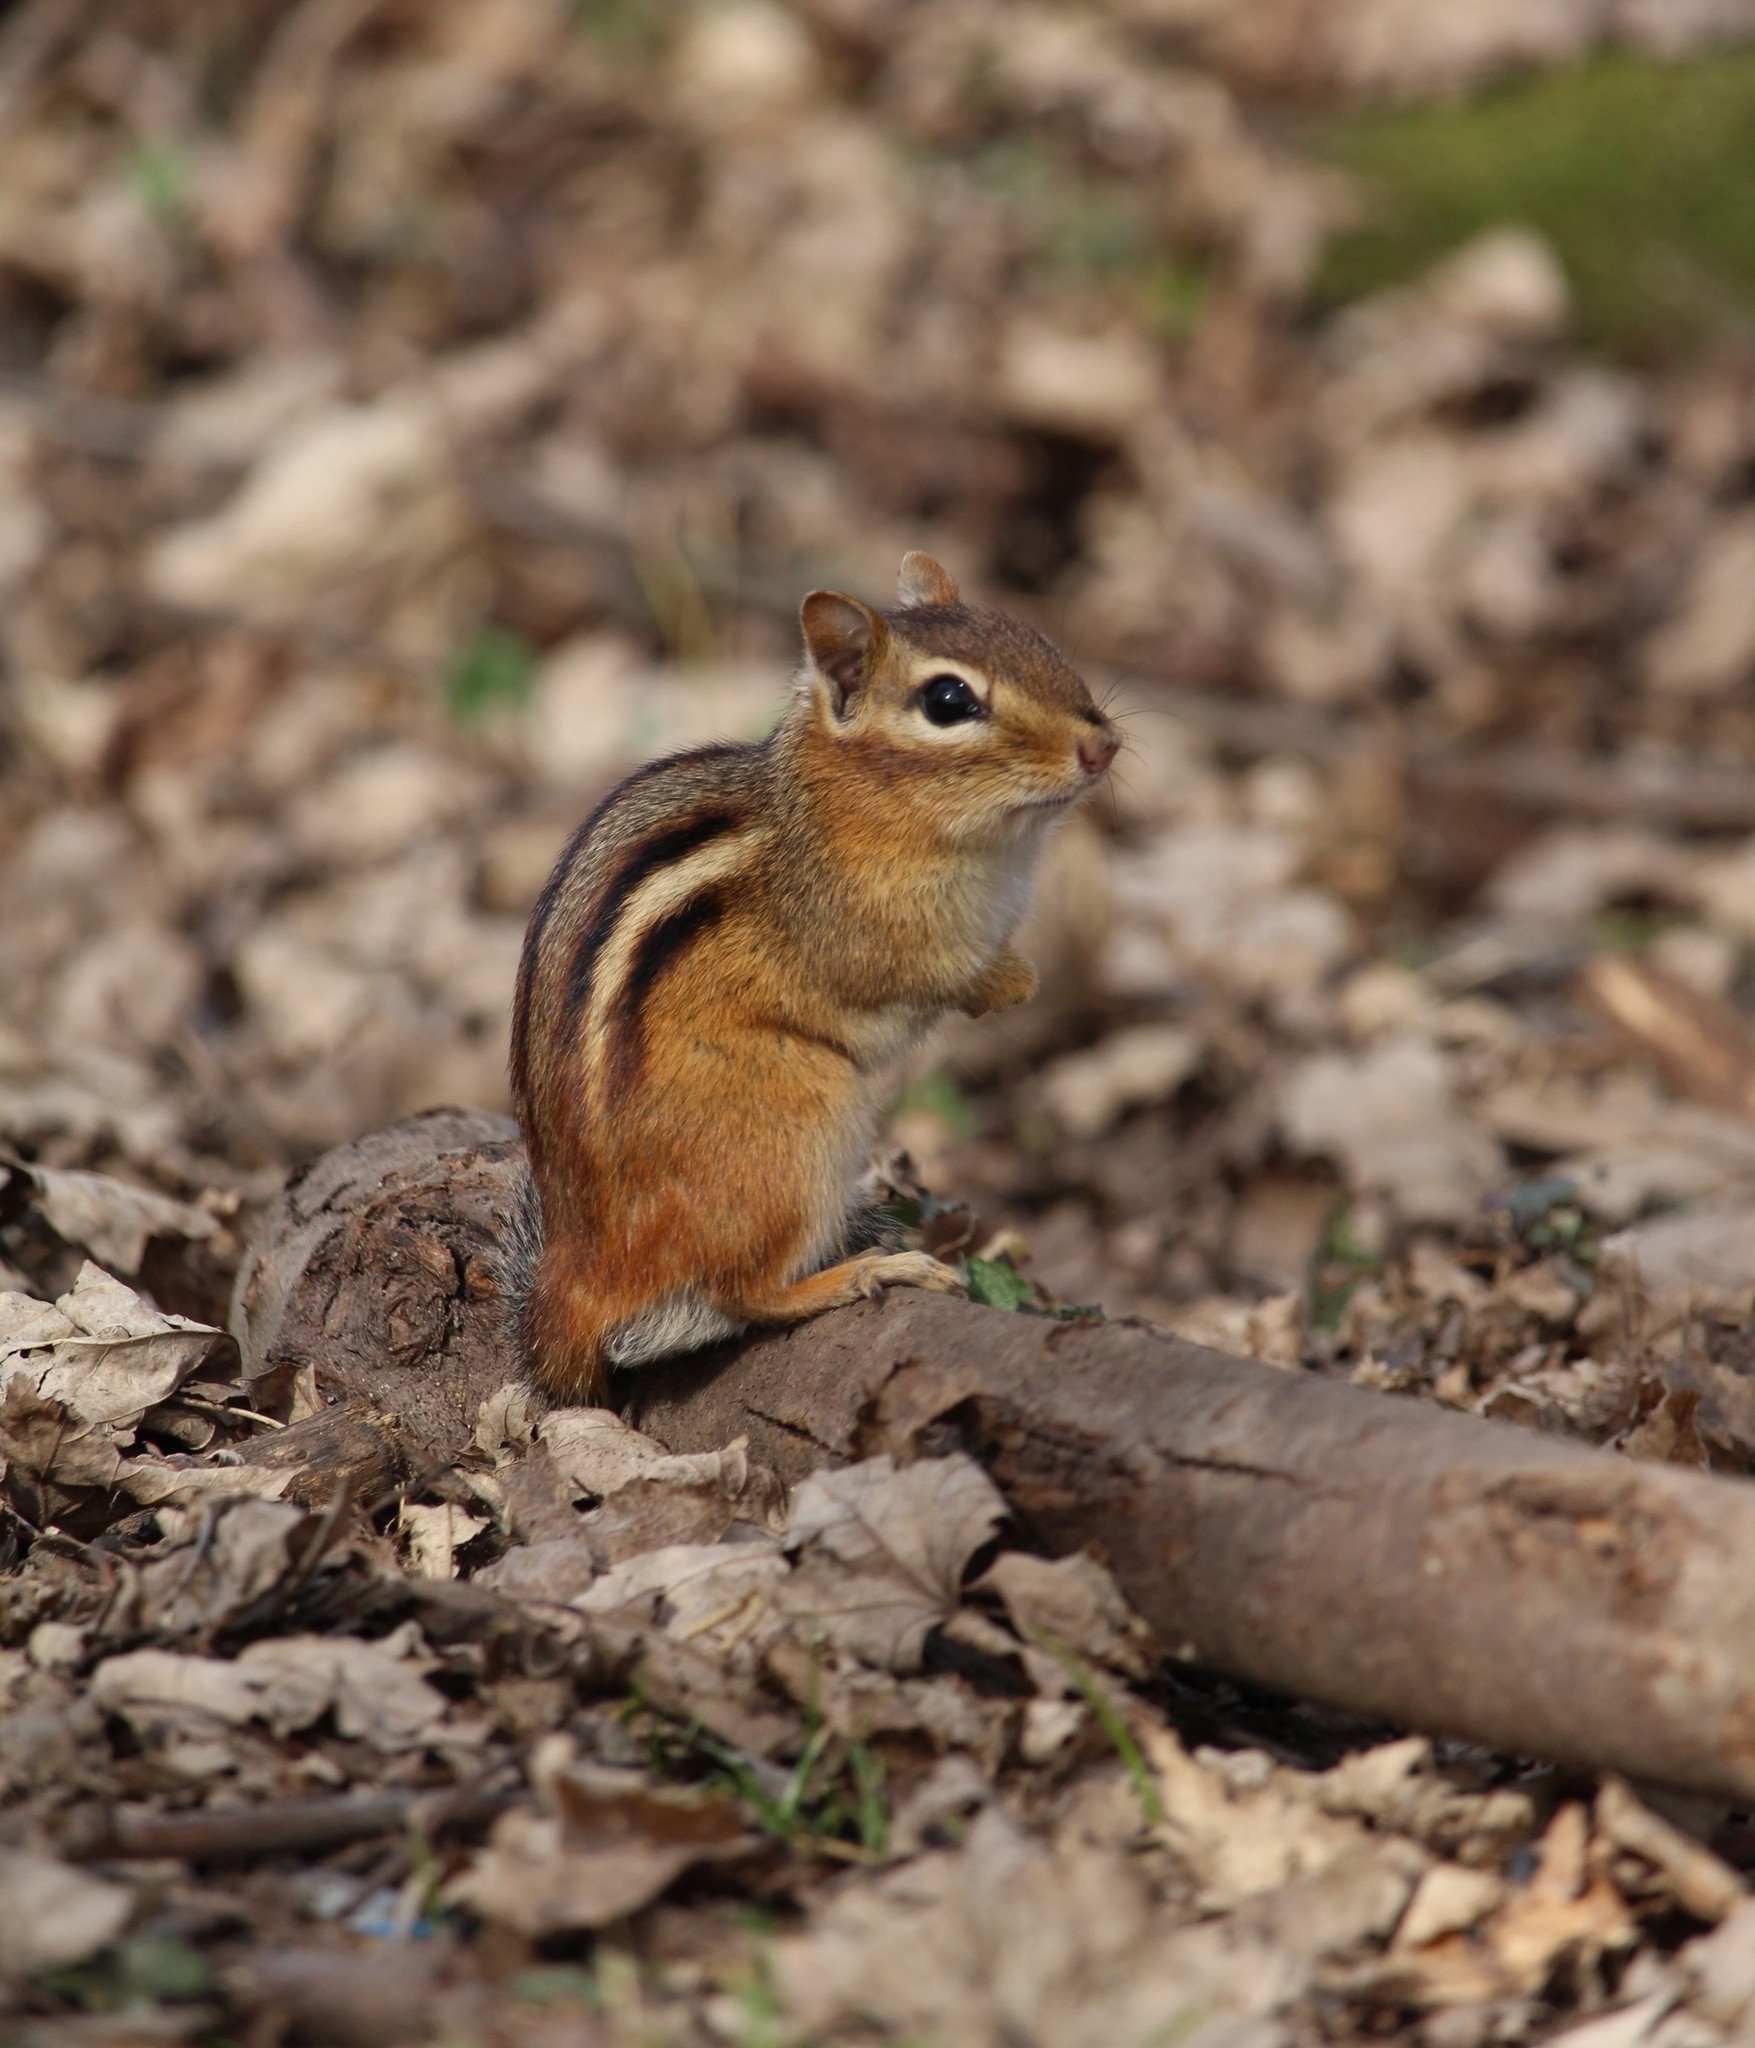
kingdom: Animalia
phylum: Chordata
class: Mammalia
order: Rodentia
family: Sciuridae
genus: Tamias
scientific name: Tamias striatus
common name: Eastern chipmunk
